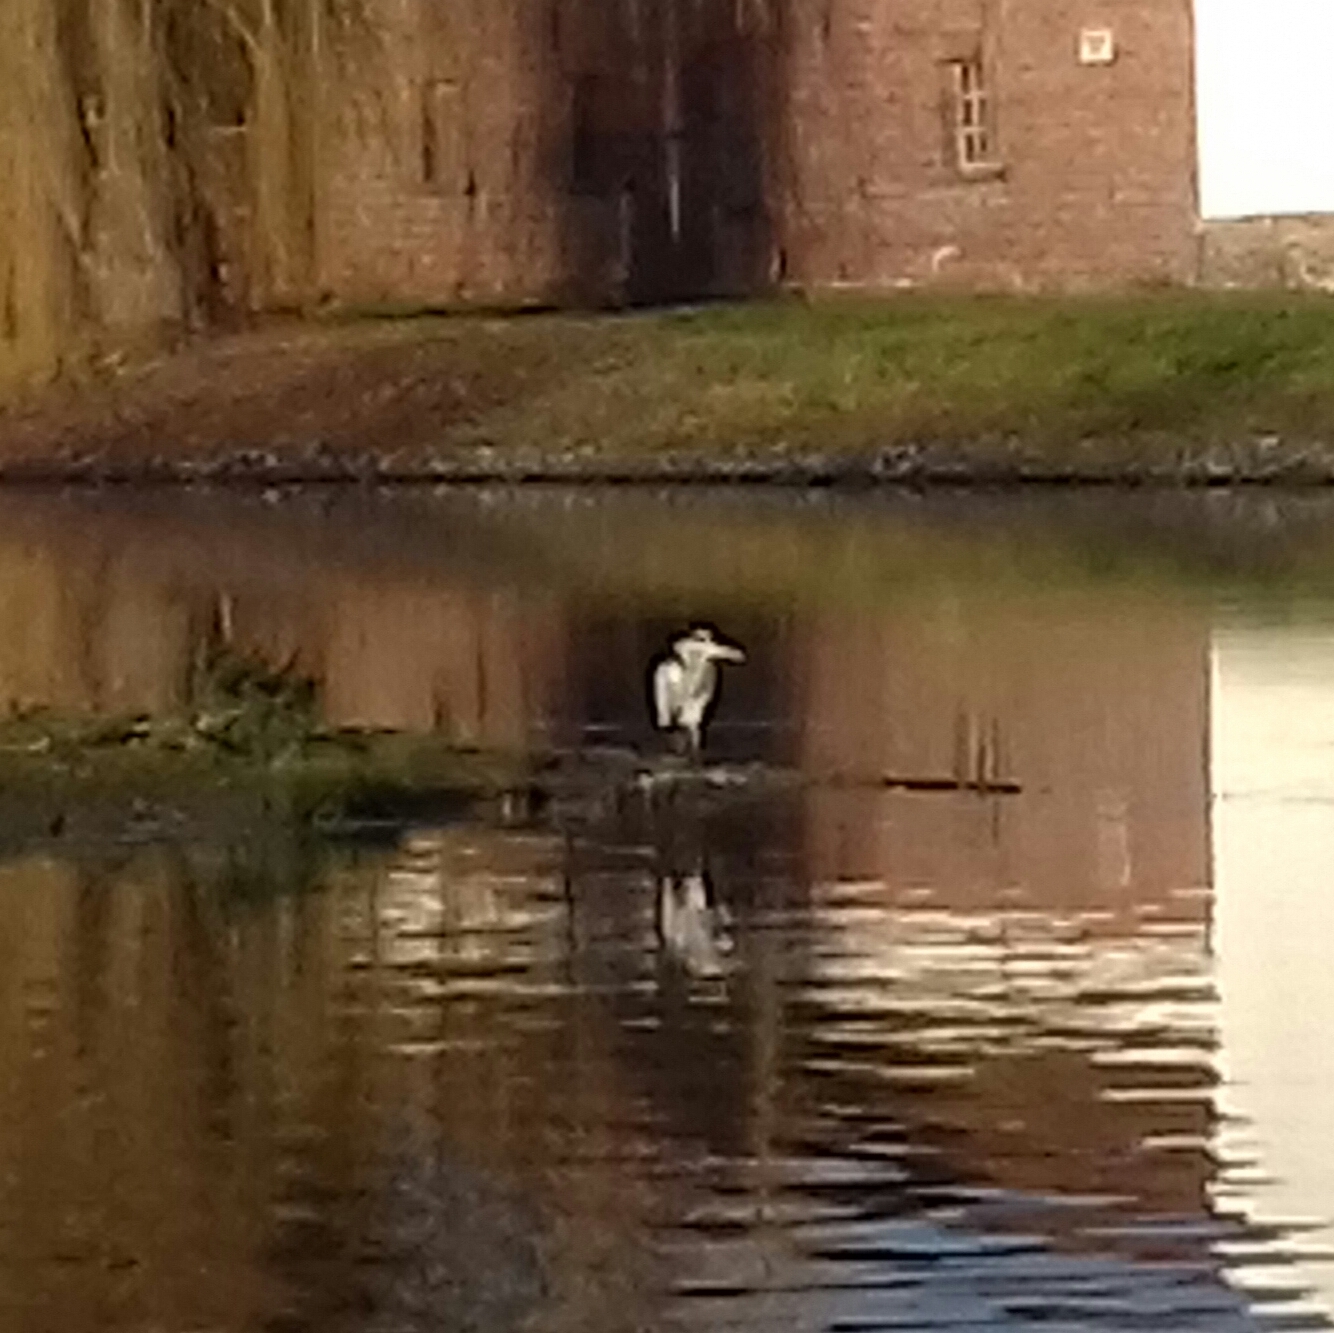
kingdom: Animalia
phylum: Chordata
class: Aves
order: Pelecaniformes
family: Ardeidae
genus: Ardea
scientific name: Ardea cinerea
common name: Grey heron
